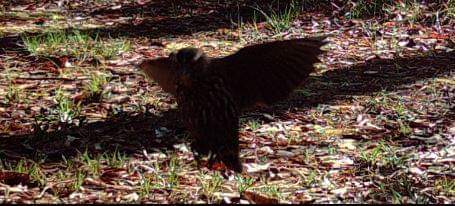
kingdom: Animalia
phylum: Chordata
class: Aves
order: Piciformes
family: Picidae
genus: Colaptes
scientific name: Colaptes auratus
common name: Northern flicker
